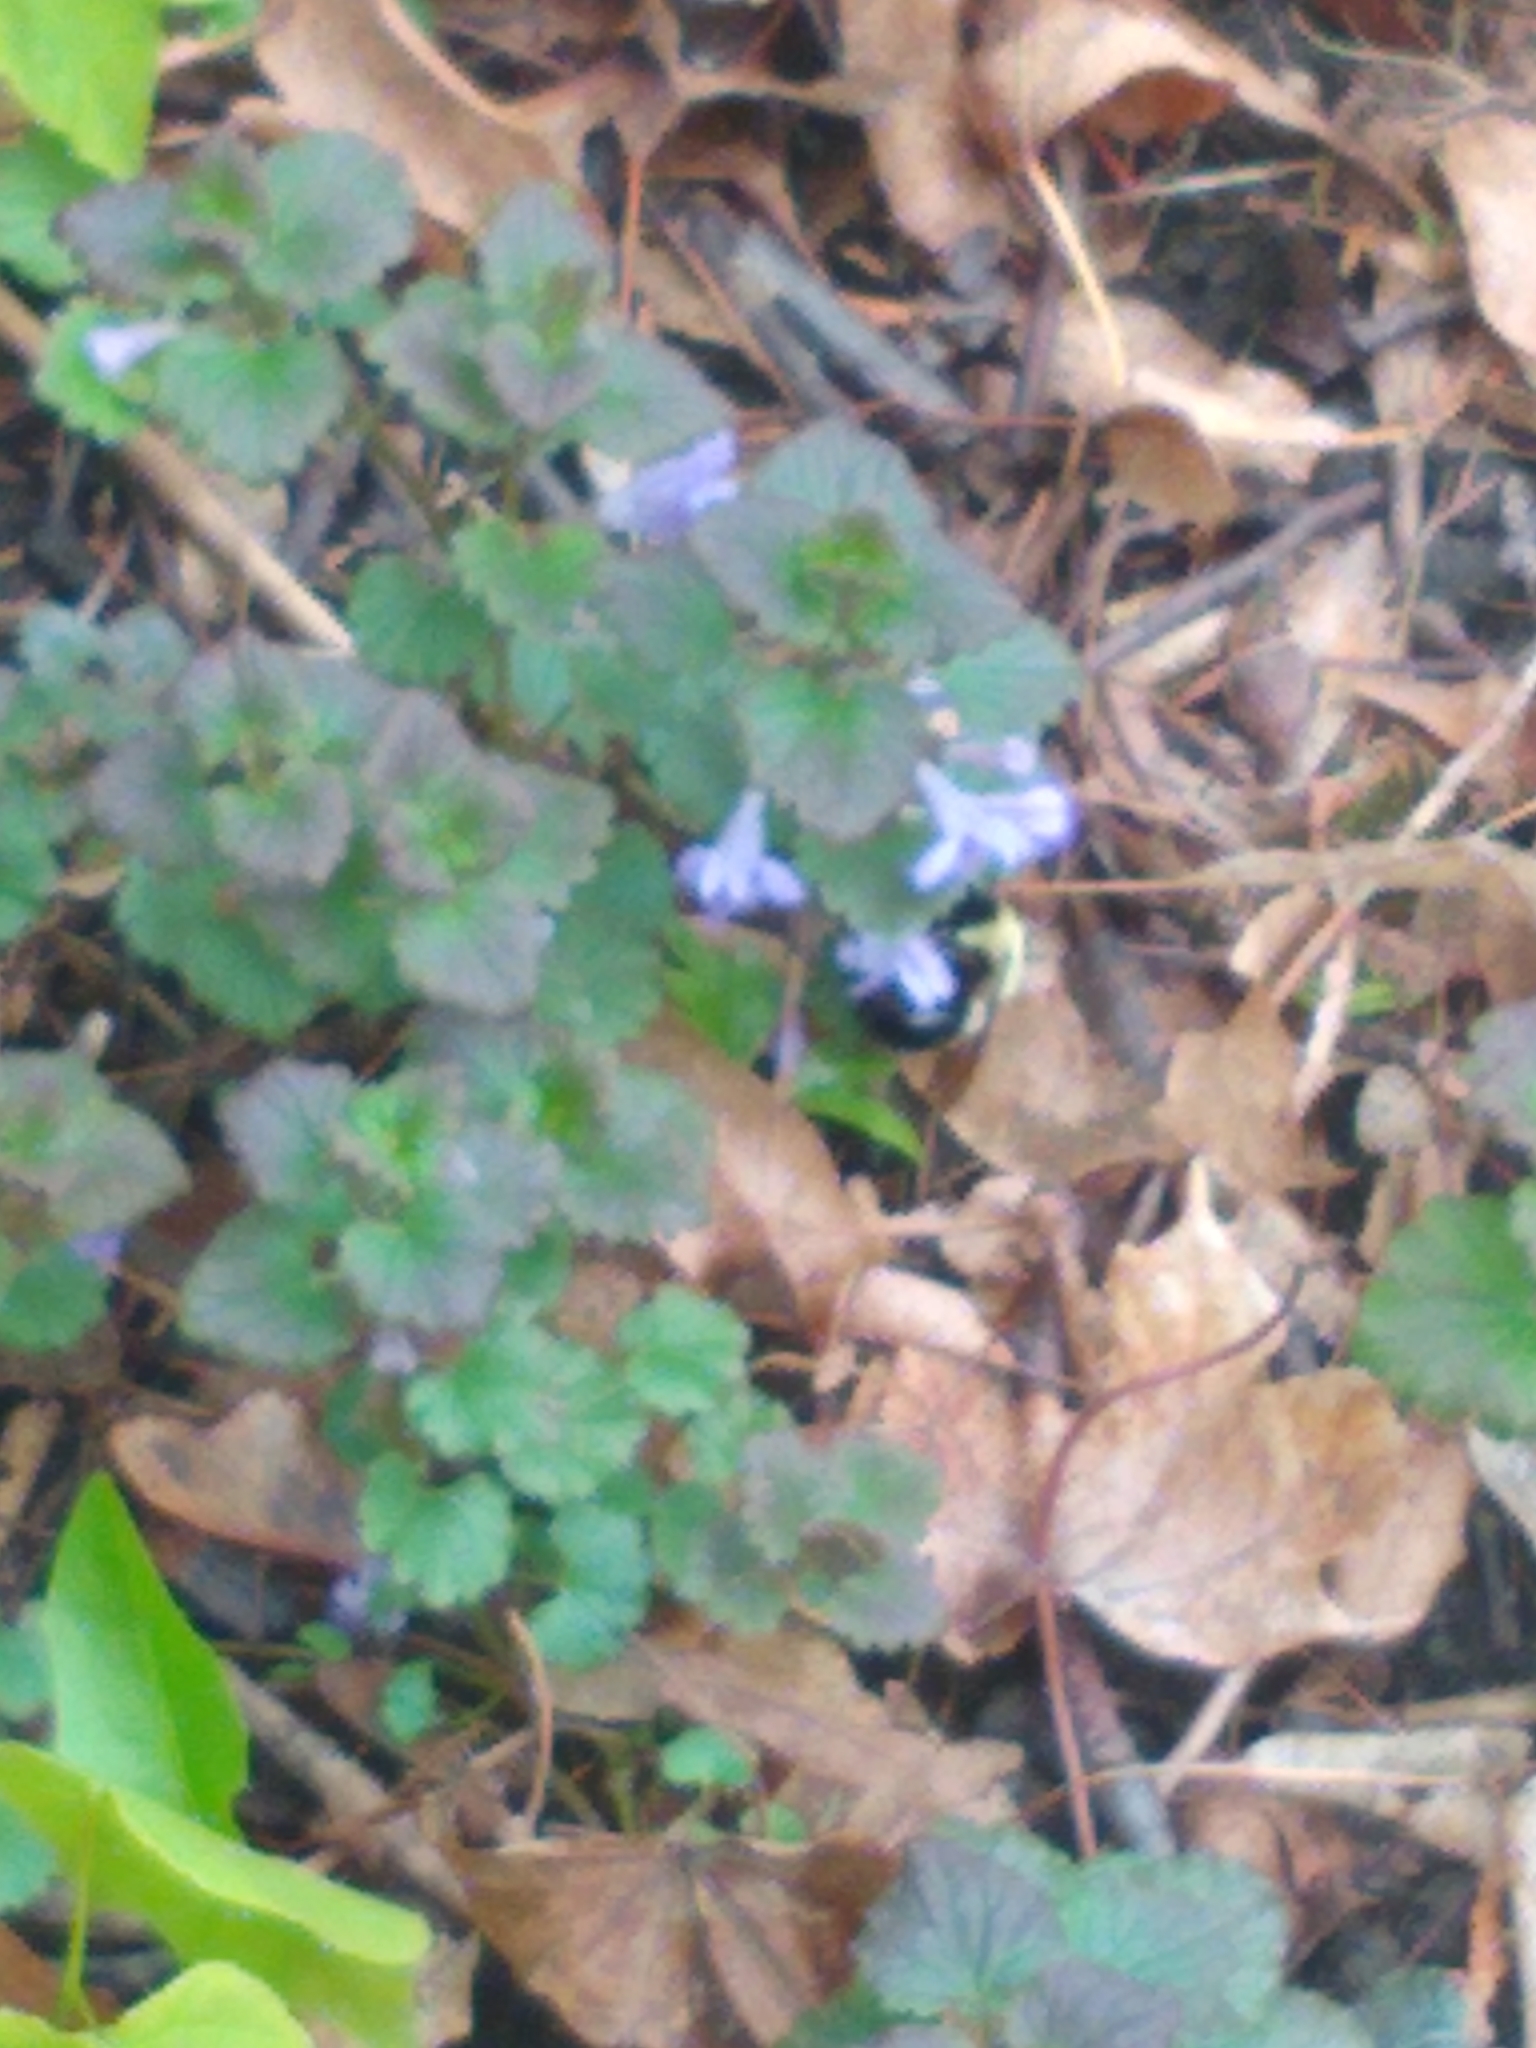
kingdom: Animalia
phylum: Arthropoda
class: Insecta
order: Hymenoptera
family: Apidae
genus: Bombus
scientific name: Bombus bimaculatus
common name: Two-spotted bumble bee
